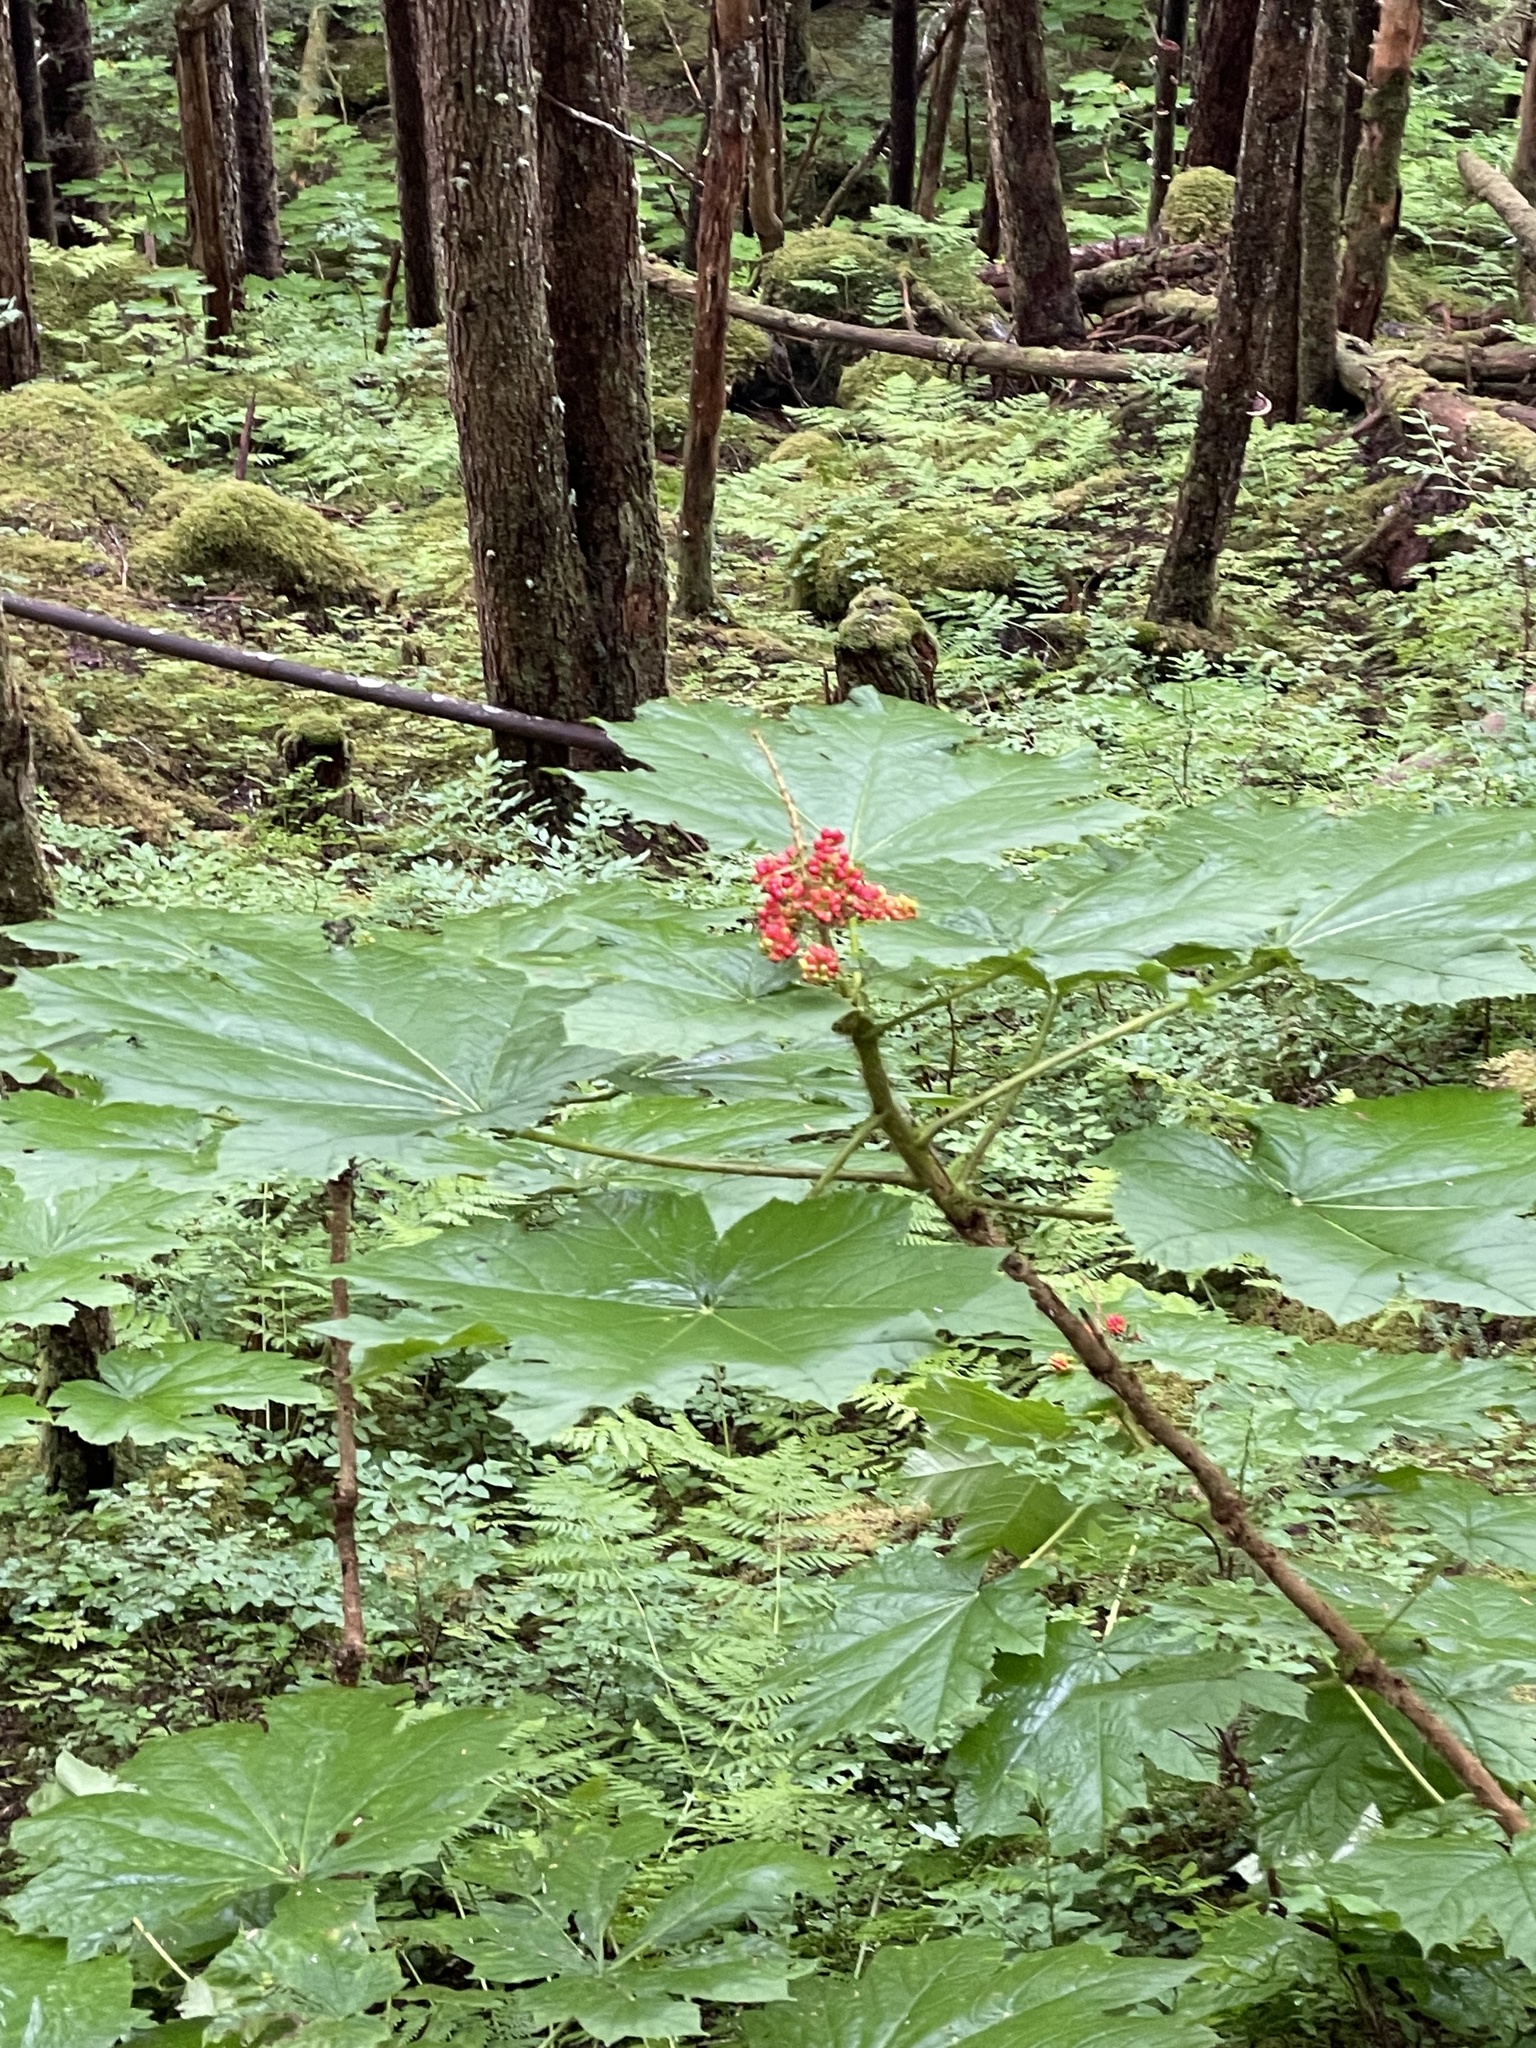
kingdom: Plantae
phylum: Tracheophyta
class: Magnoliopsida
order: Apiales
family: Araliaceae
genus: Oplopanax
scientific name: Oplopanax horridus
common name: Devil's walking-stick
